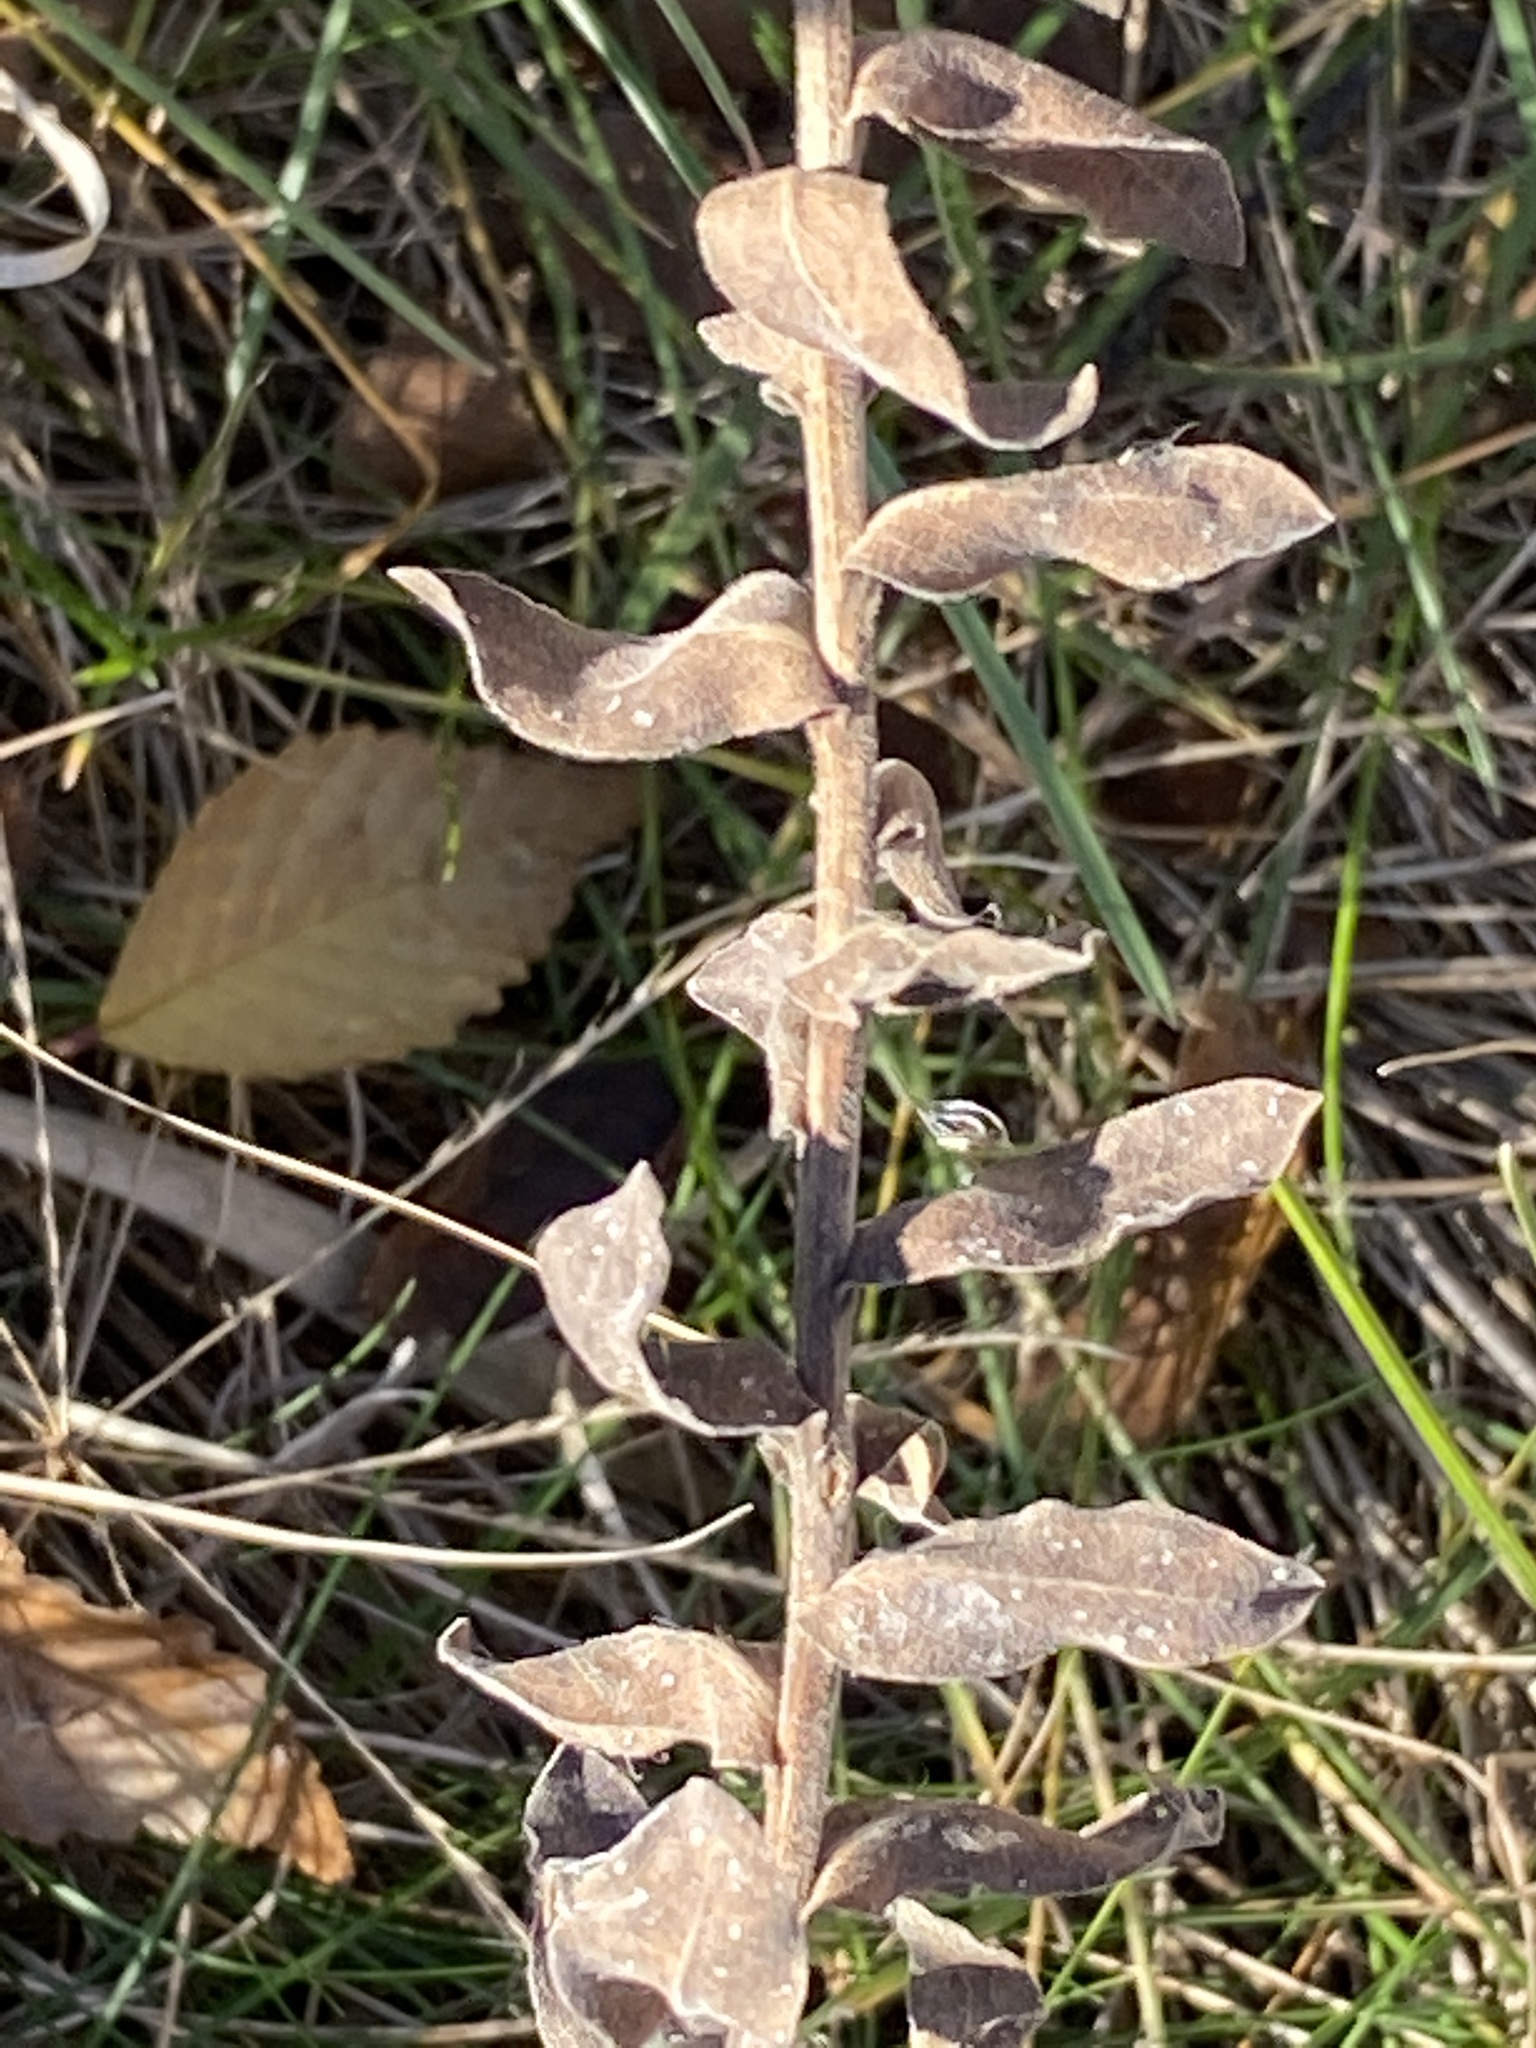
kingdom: Plantae
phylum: Tracheophyta
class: Magnoliopsida
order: Asterales
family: Asteraceae
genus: Solidago
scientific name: Solidago rigida
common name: Rigid goldenrod
